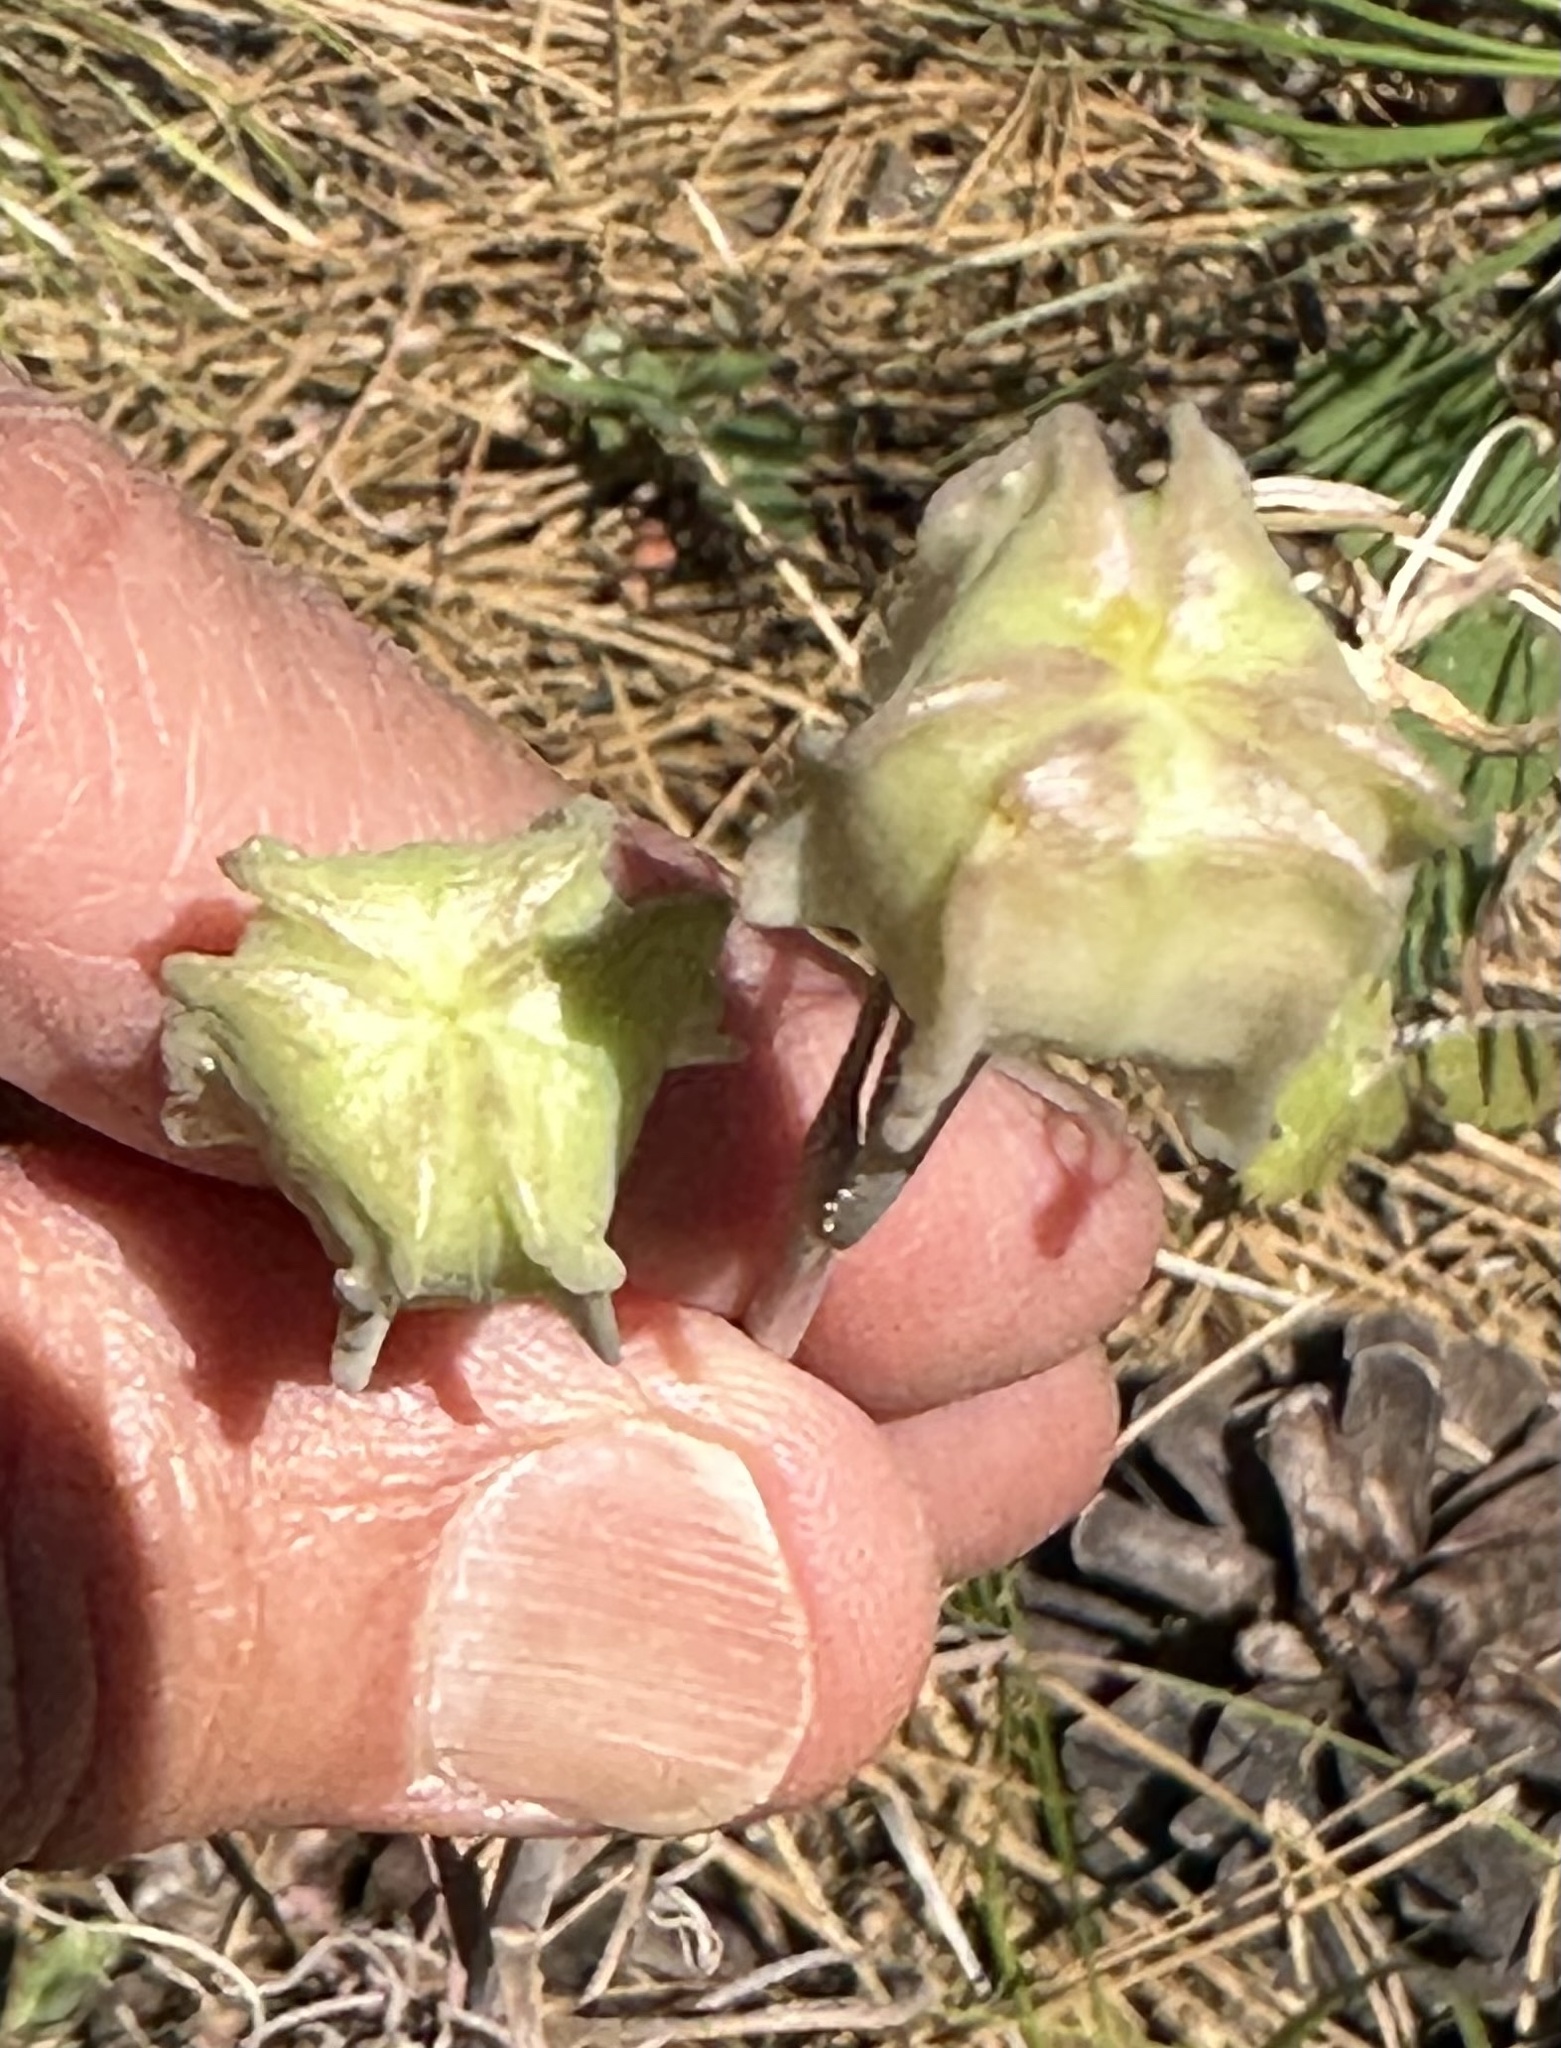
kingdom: Plantae
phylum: Tracheophyta
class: Liliopsida
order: Liliales
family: Liliaceae
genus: Fritillaria
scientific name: Fritillaria atropurpurea
